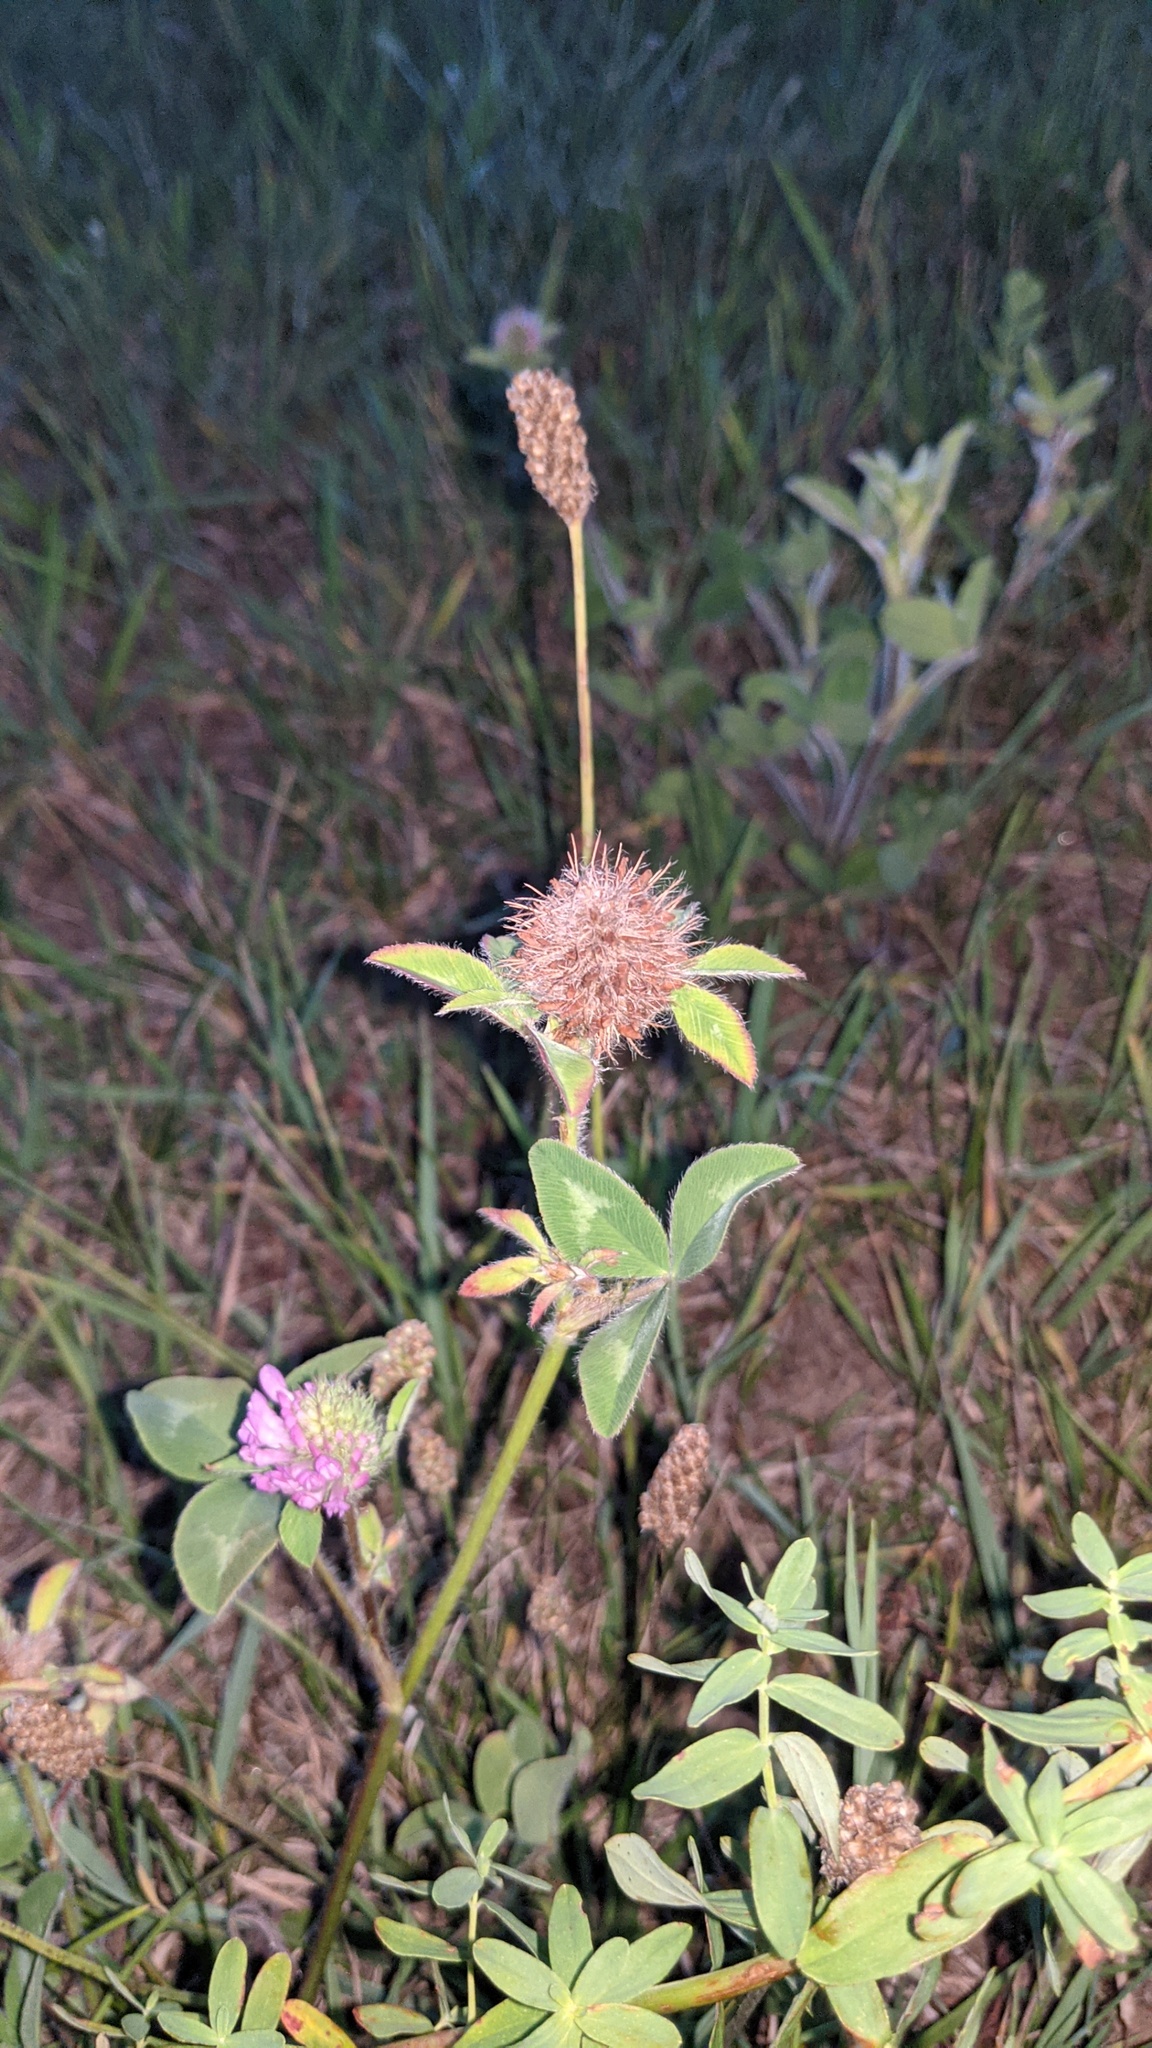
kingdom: Plantae
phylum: Tracheophyta
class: Magnoliopsida
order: Fabales
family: Fabaceae
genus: Trifolium
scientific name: Trifolium pratense
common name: Red clover
